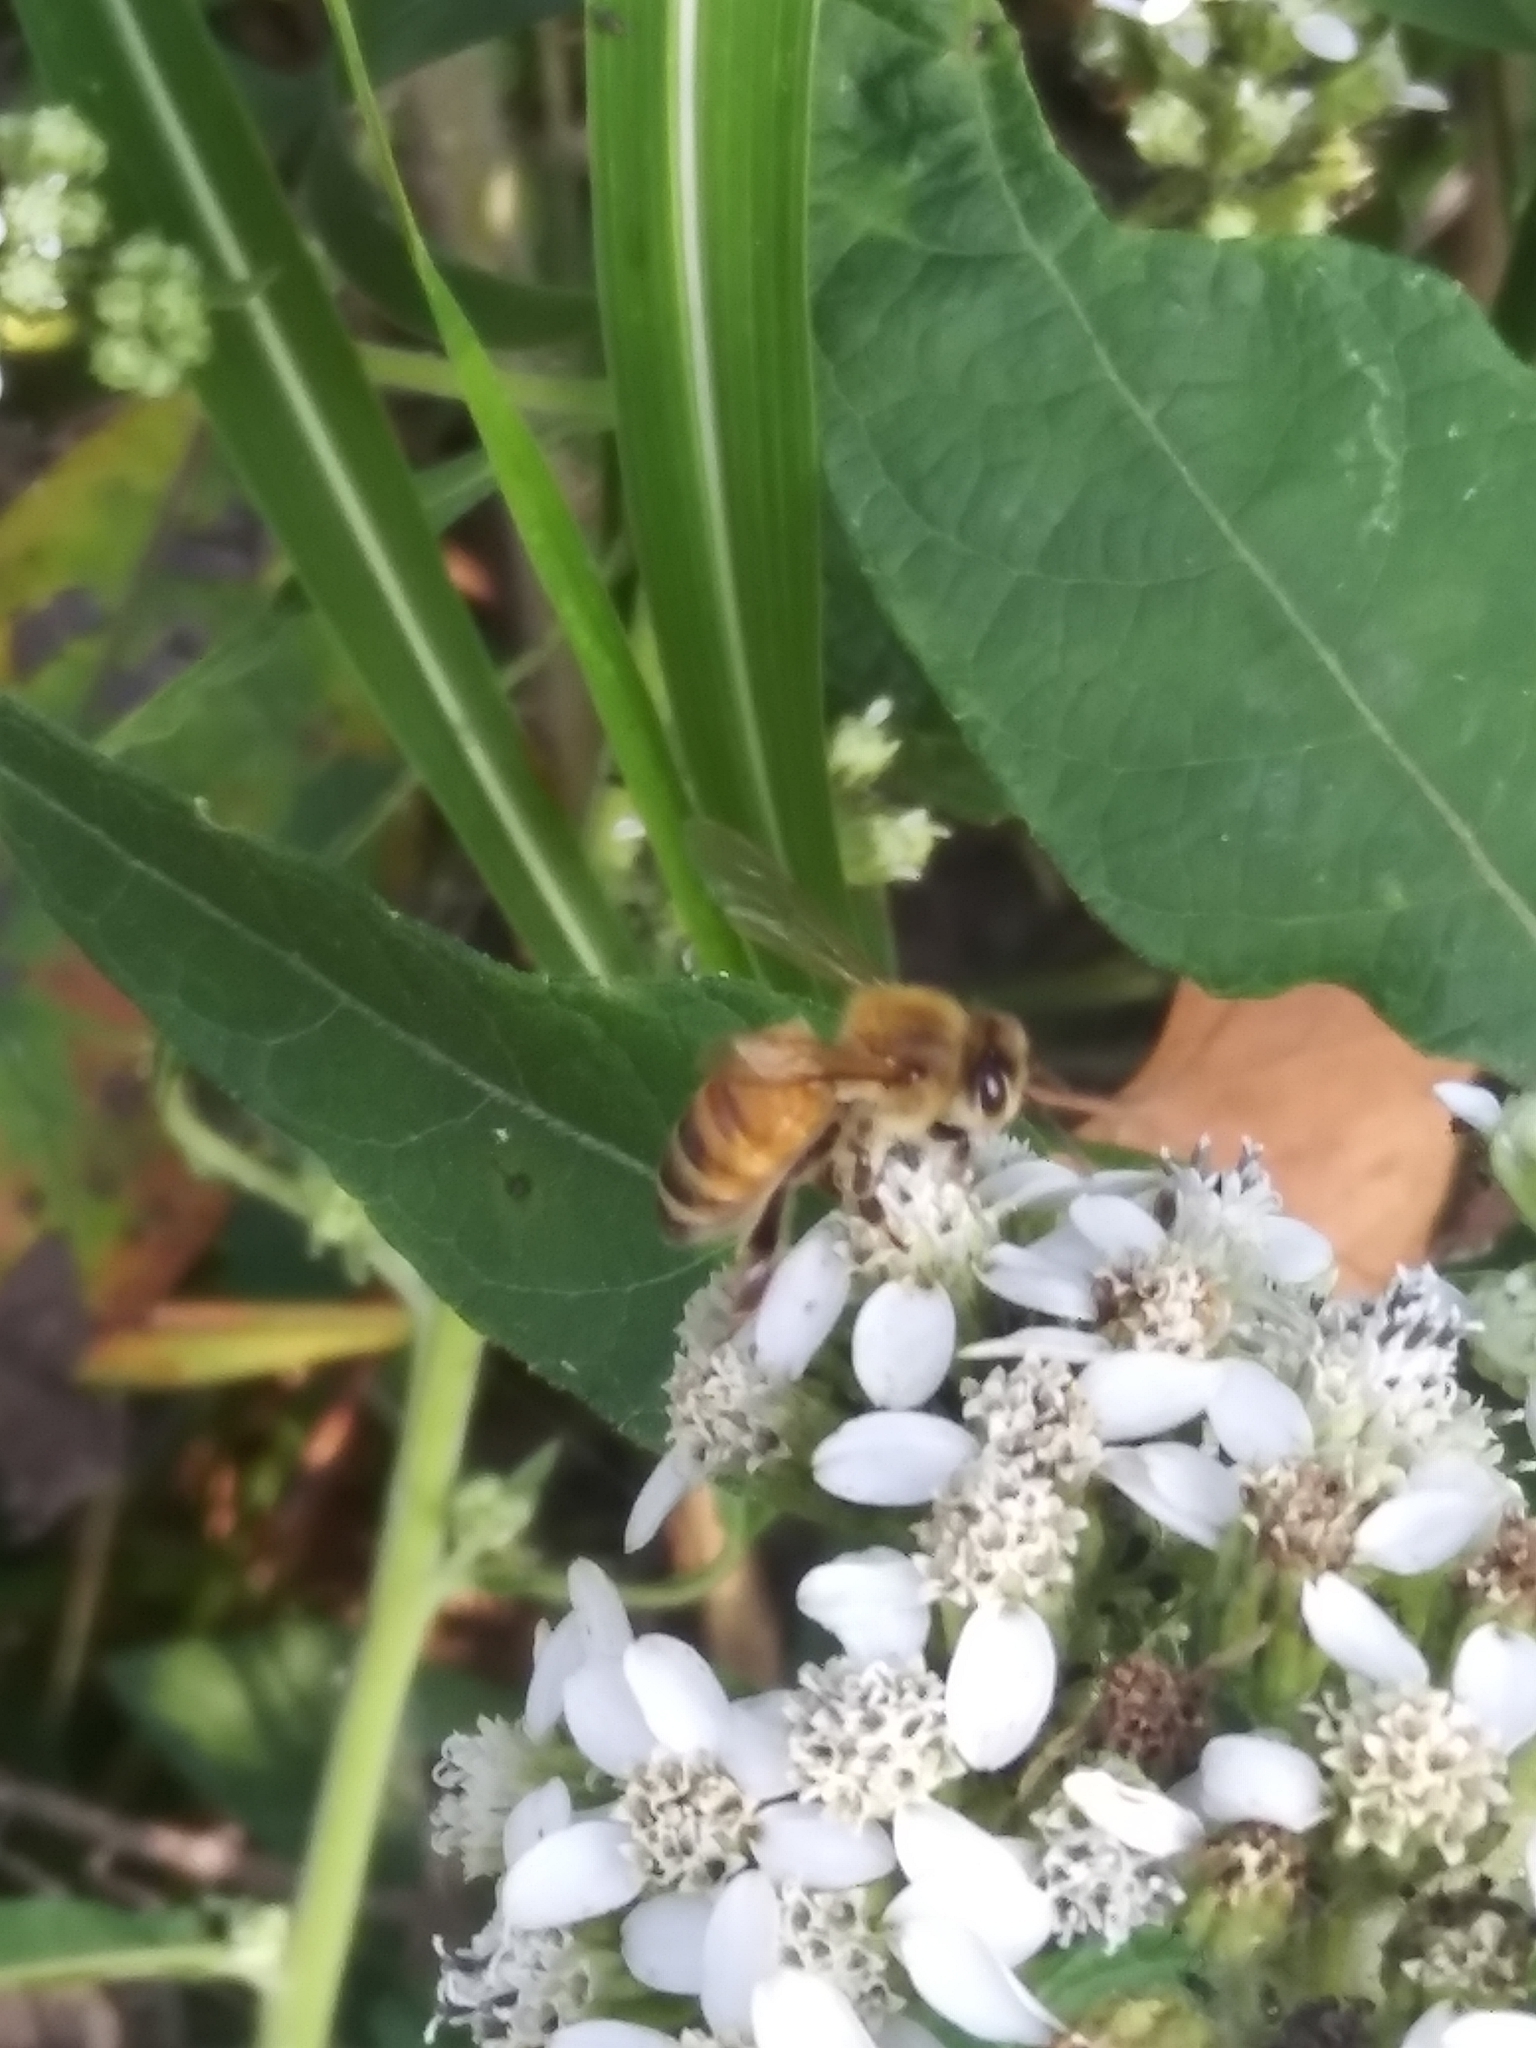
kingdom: Animalia
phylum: Arthropoda
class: Insecta
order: Hymenoptera
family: Apidae
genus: Apis
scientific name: Apis mellifera
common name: Honey bee
